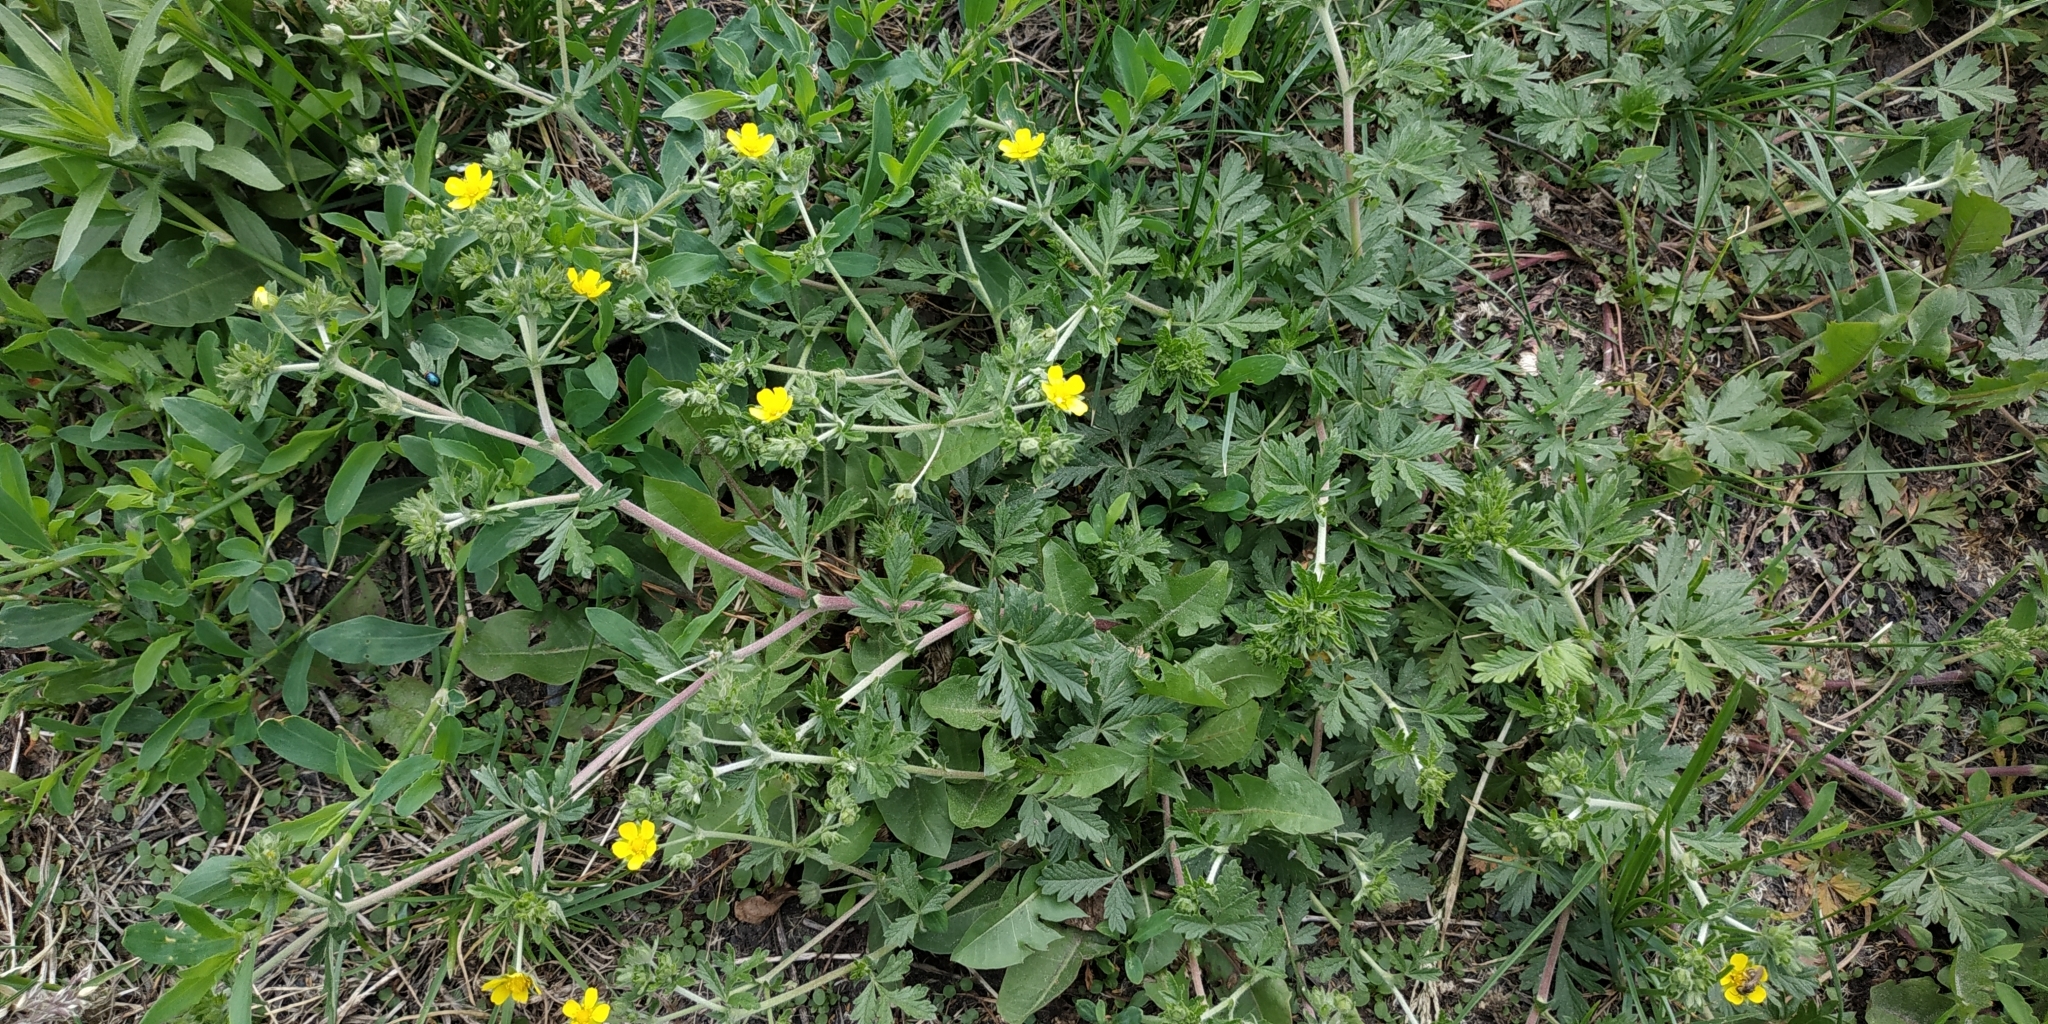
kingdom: Plantae
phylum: Tracheophyta
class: Magnoliopsida
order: Rosales
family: Rosaceae
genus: Potentilla
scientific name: Potentilla tobolensis
